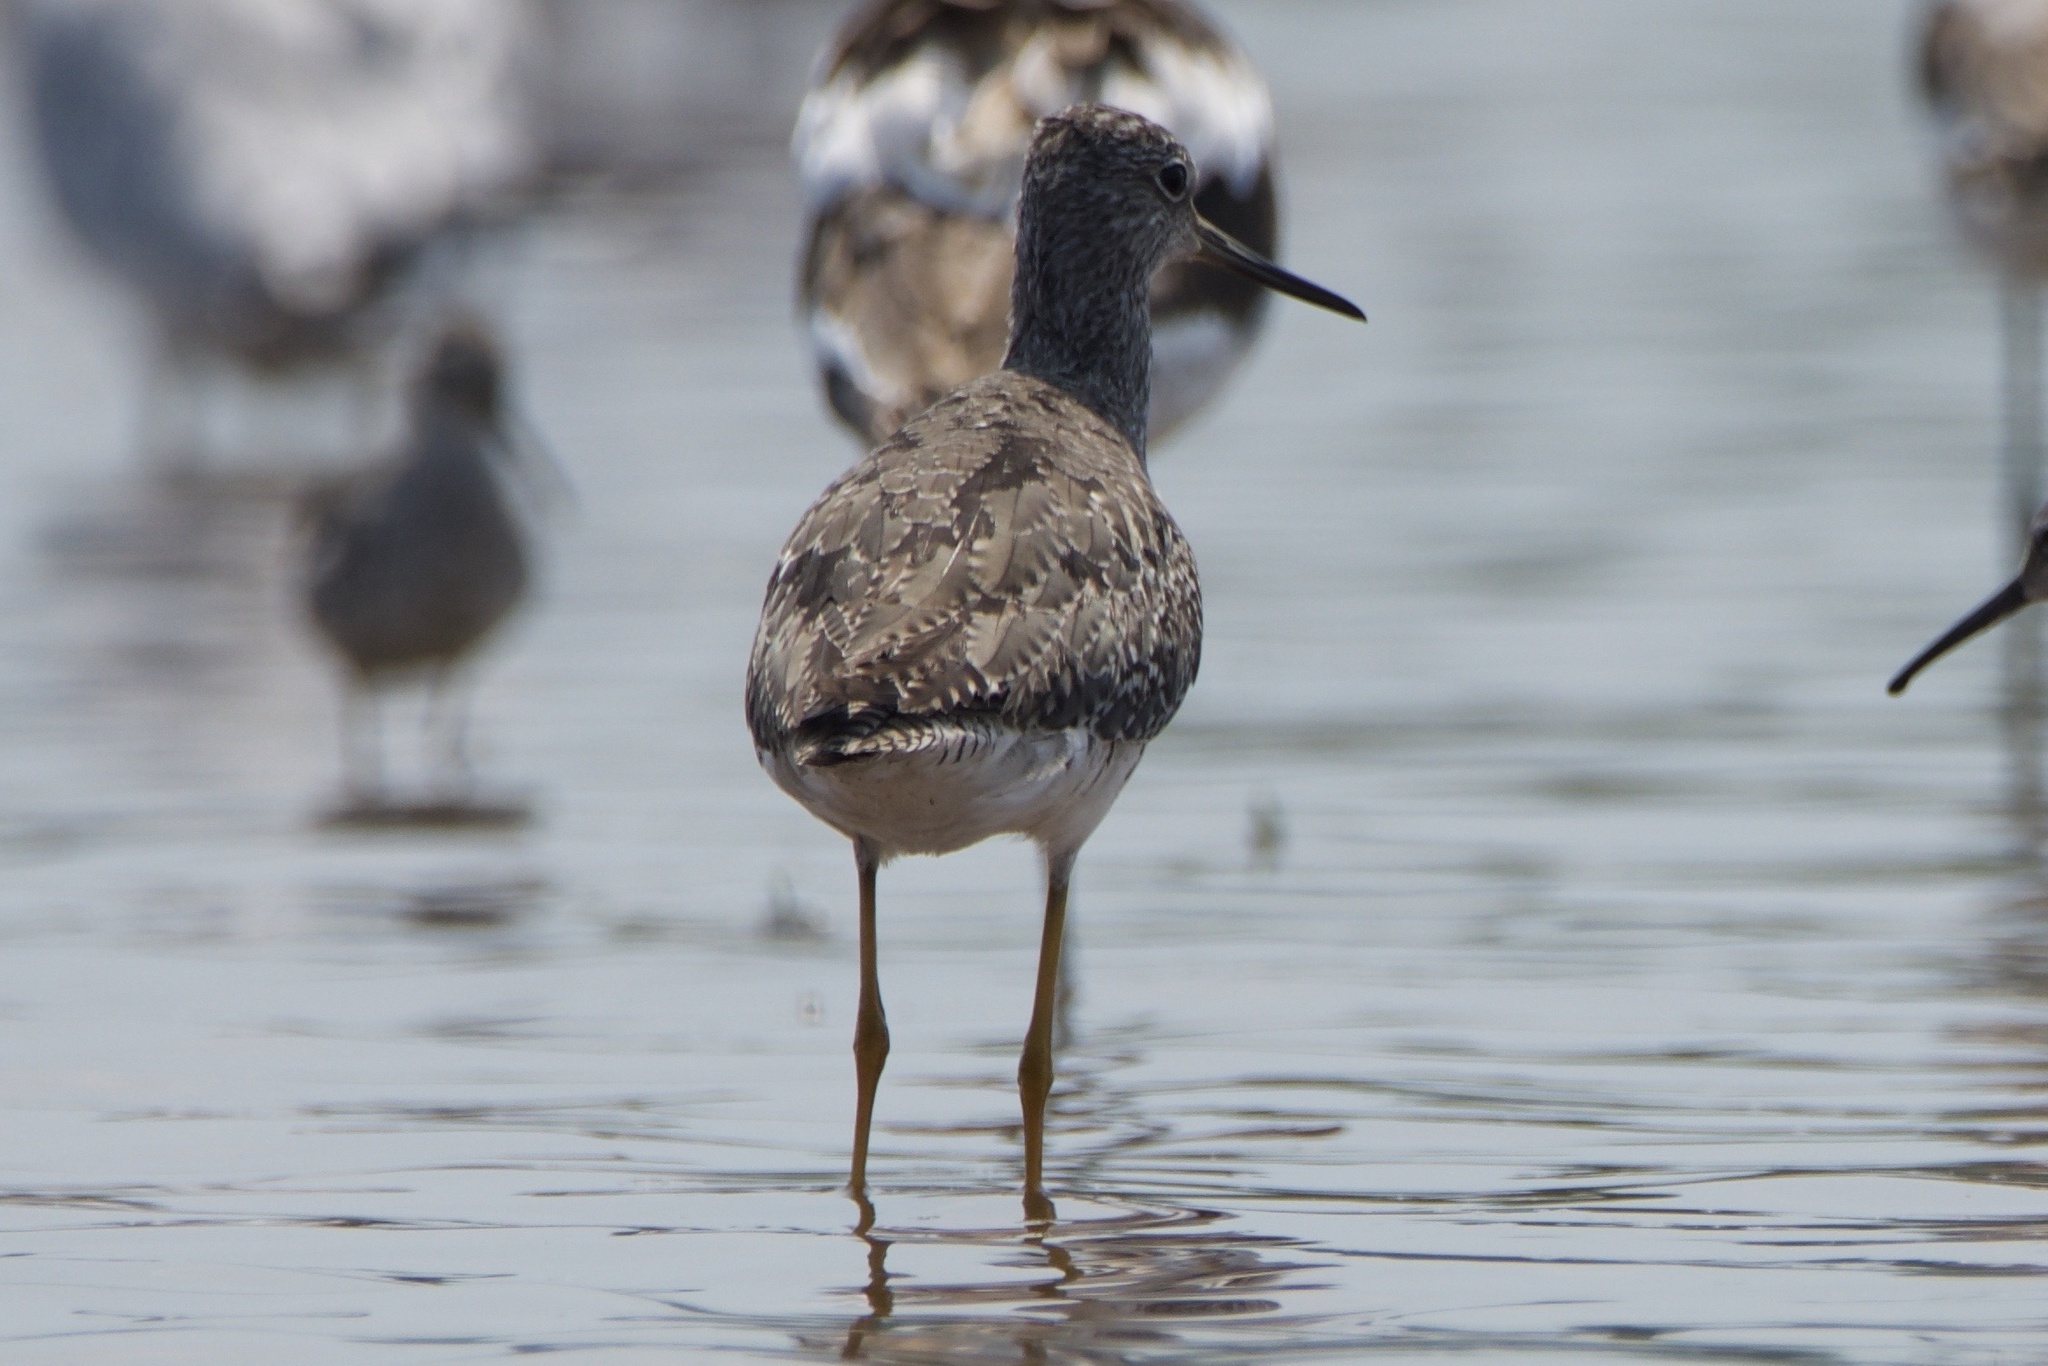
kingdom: Animalia
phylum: Chordata
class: Aves
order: Charadriiformes
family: Scolopacidae
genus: Tringa
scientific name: Tringa melanoleuca
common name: Greater yellowlegs
